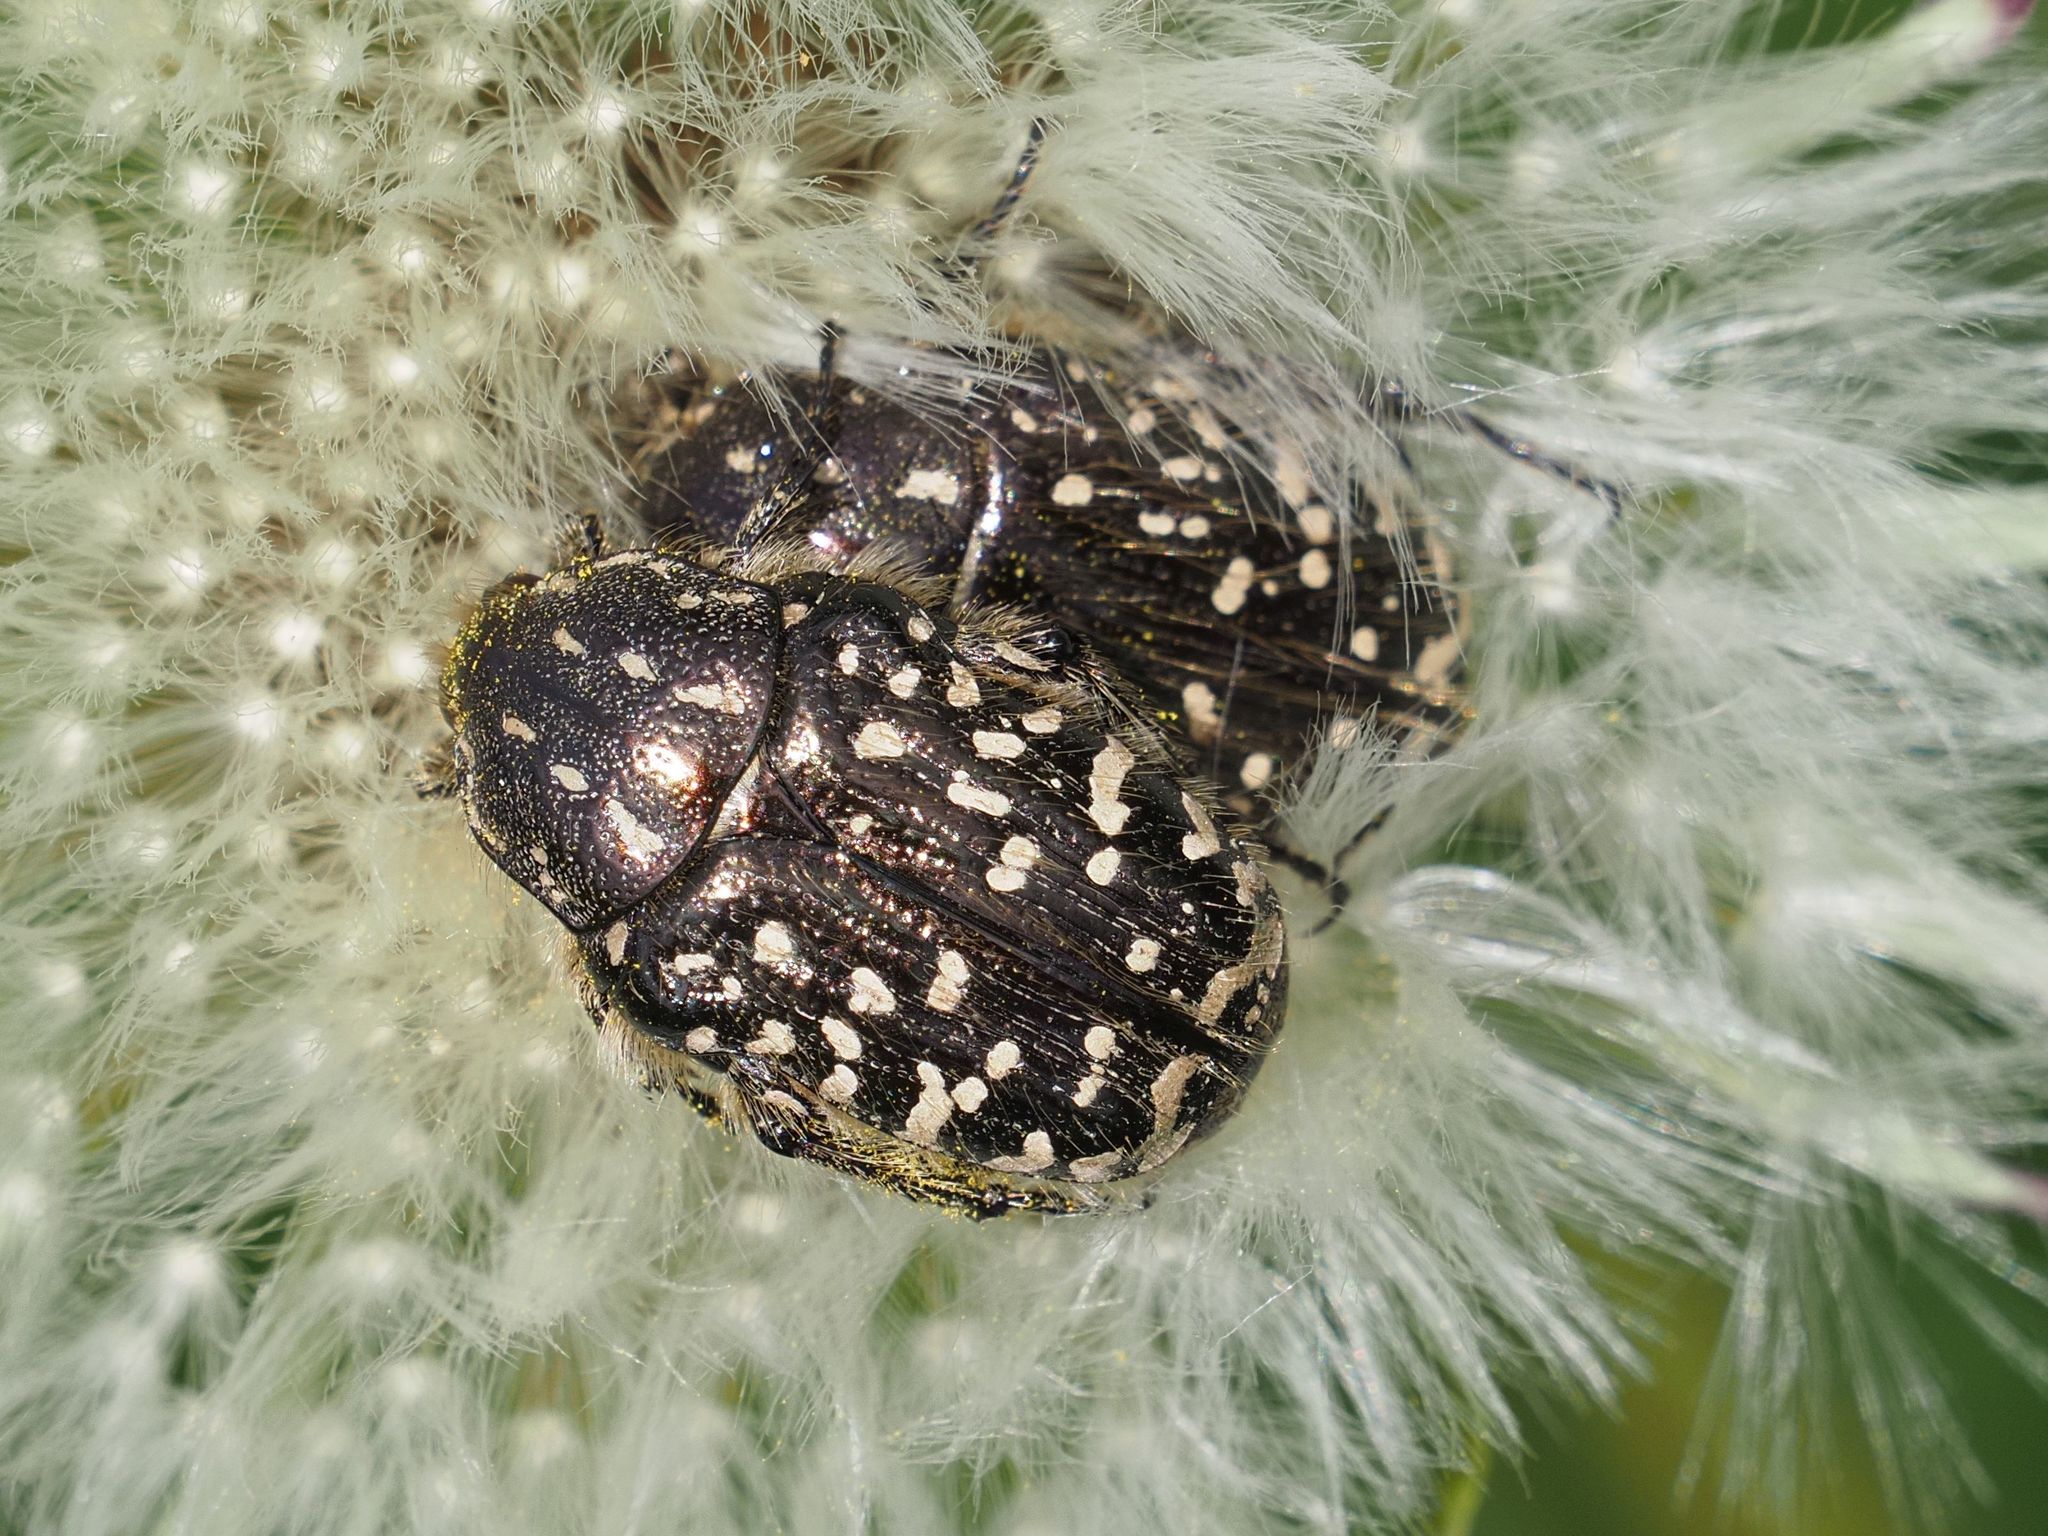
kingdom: Animalia
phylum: Arthropoda
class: Insecta
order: Coleoptera
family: Scarabaeidae
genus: Oxythyrea
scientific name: Oxythyrea funesta
